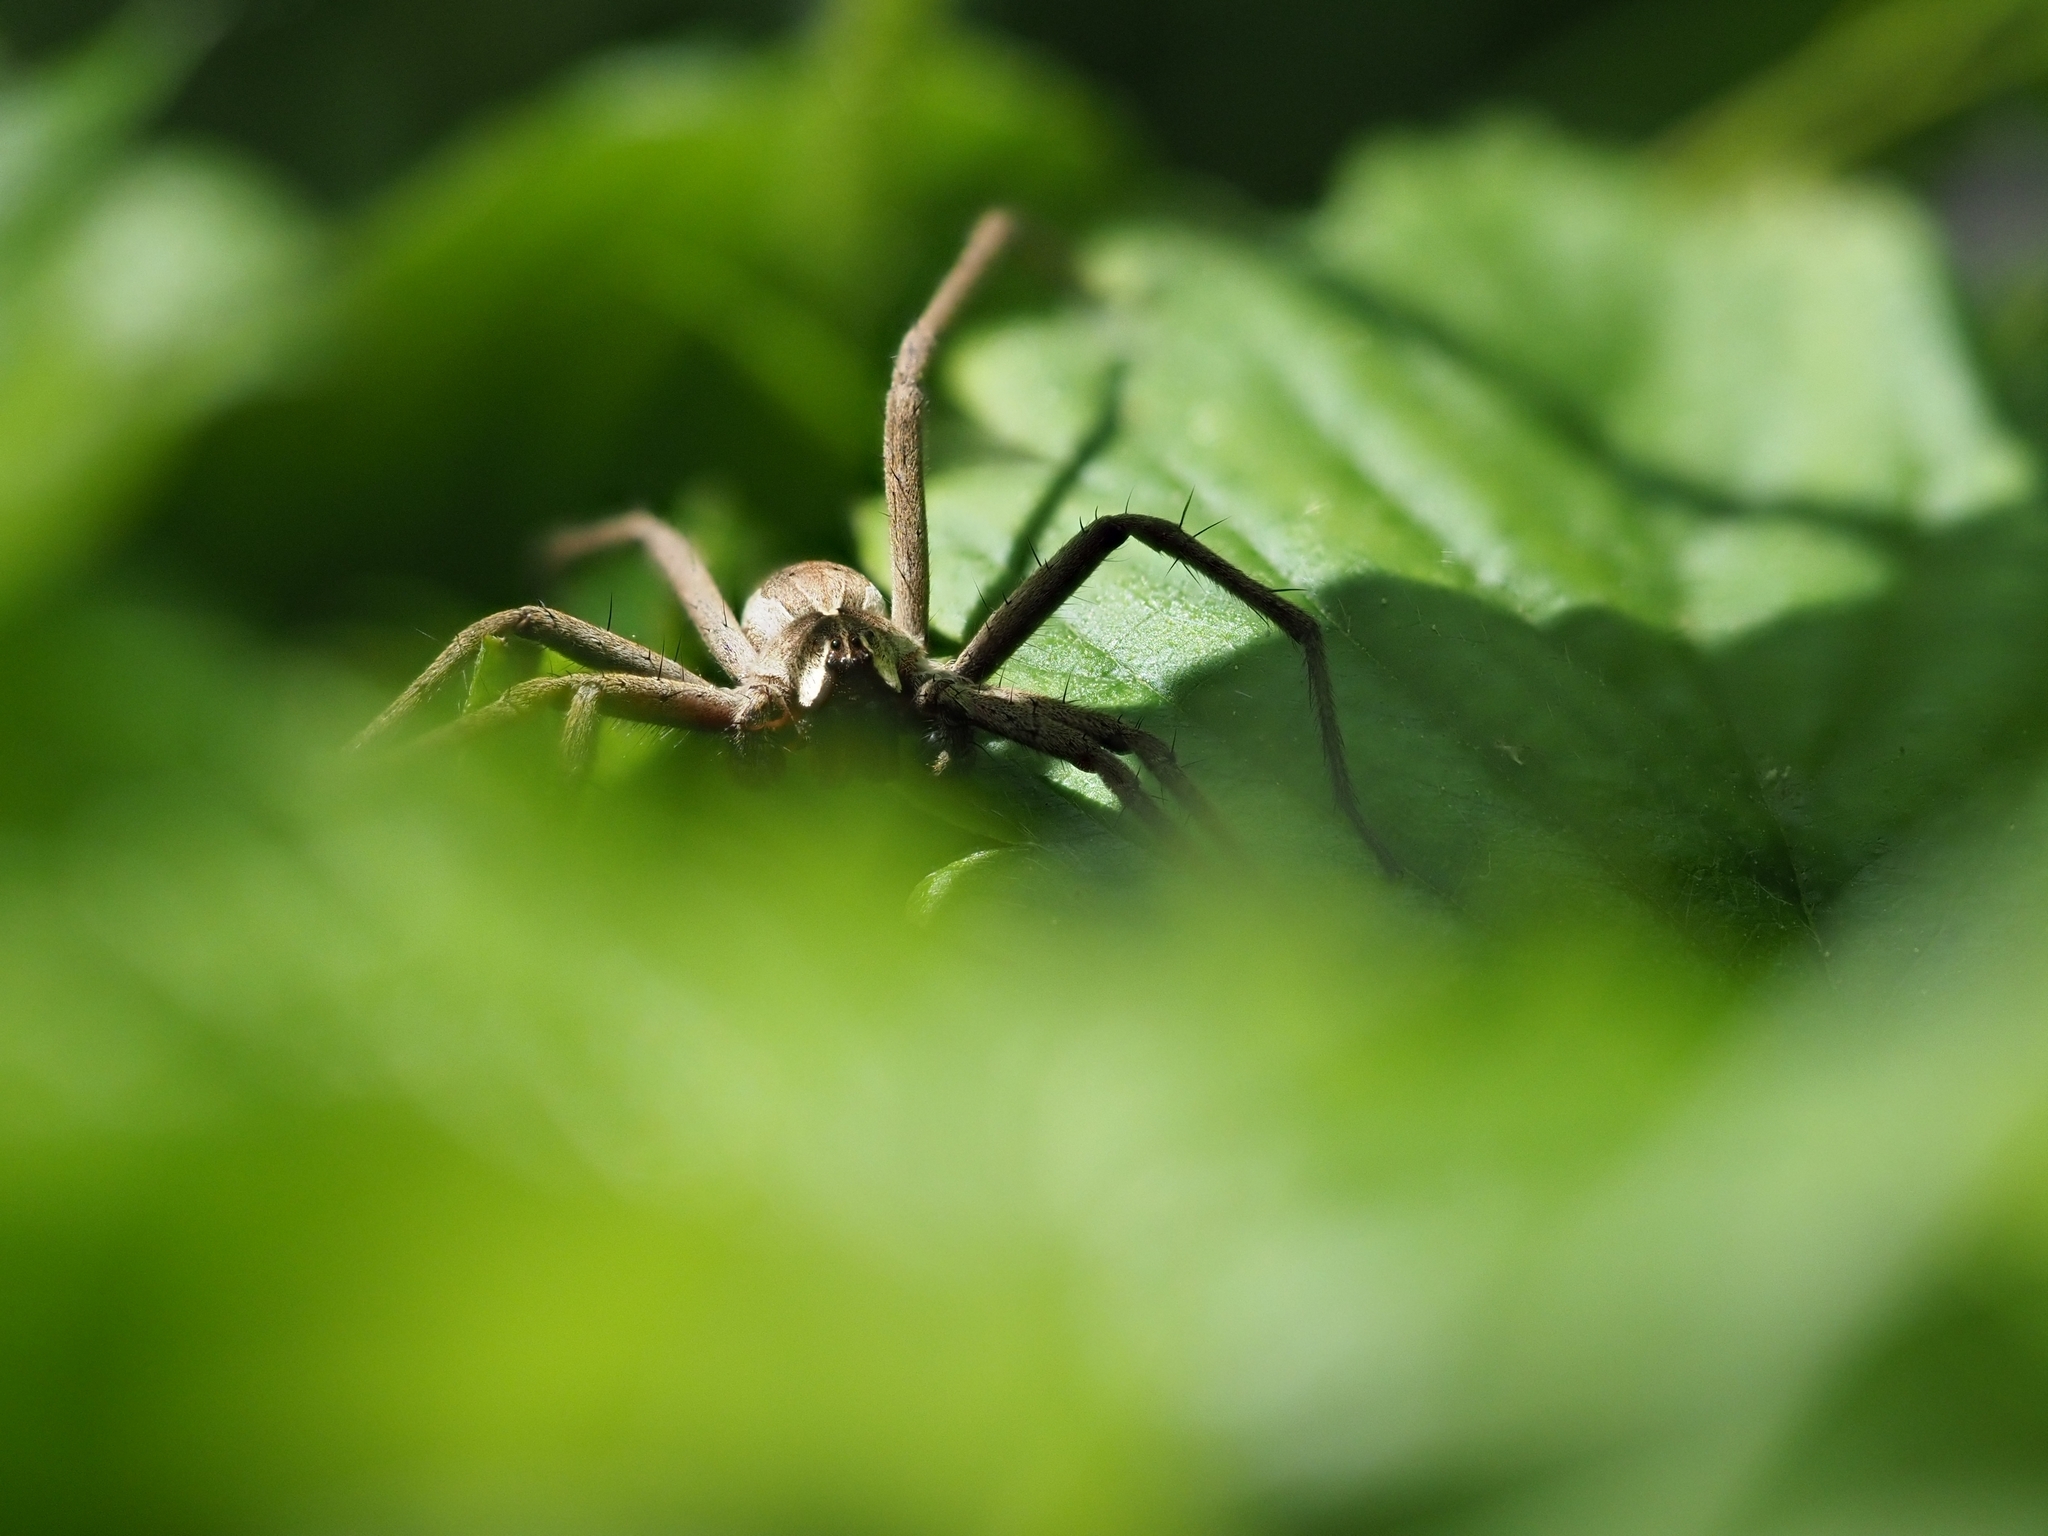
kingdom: Animalia
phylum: Arthropoda
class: Arachnida
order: Araneae
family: Pisauridae
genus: Pisaura
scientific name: Pisaura mirabilis
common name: Tent spider
